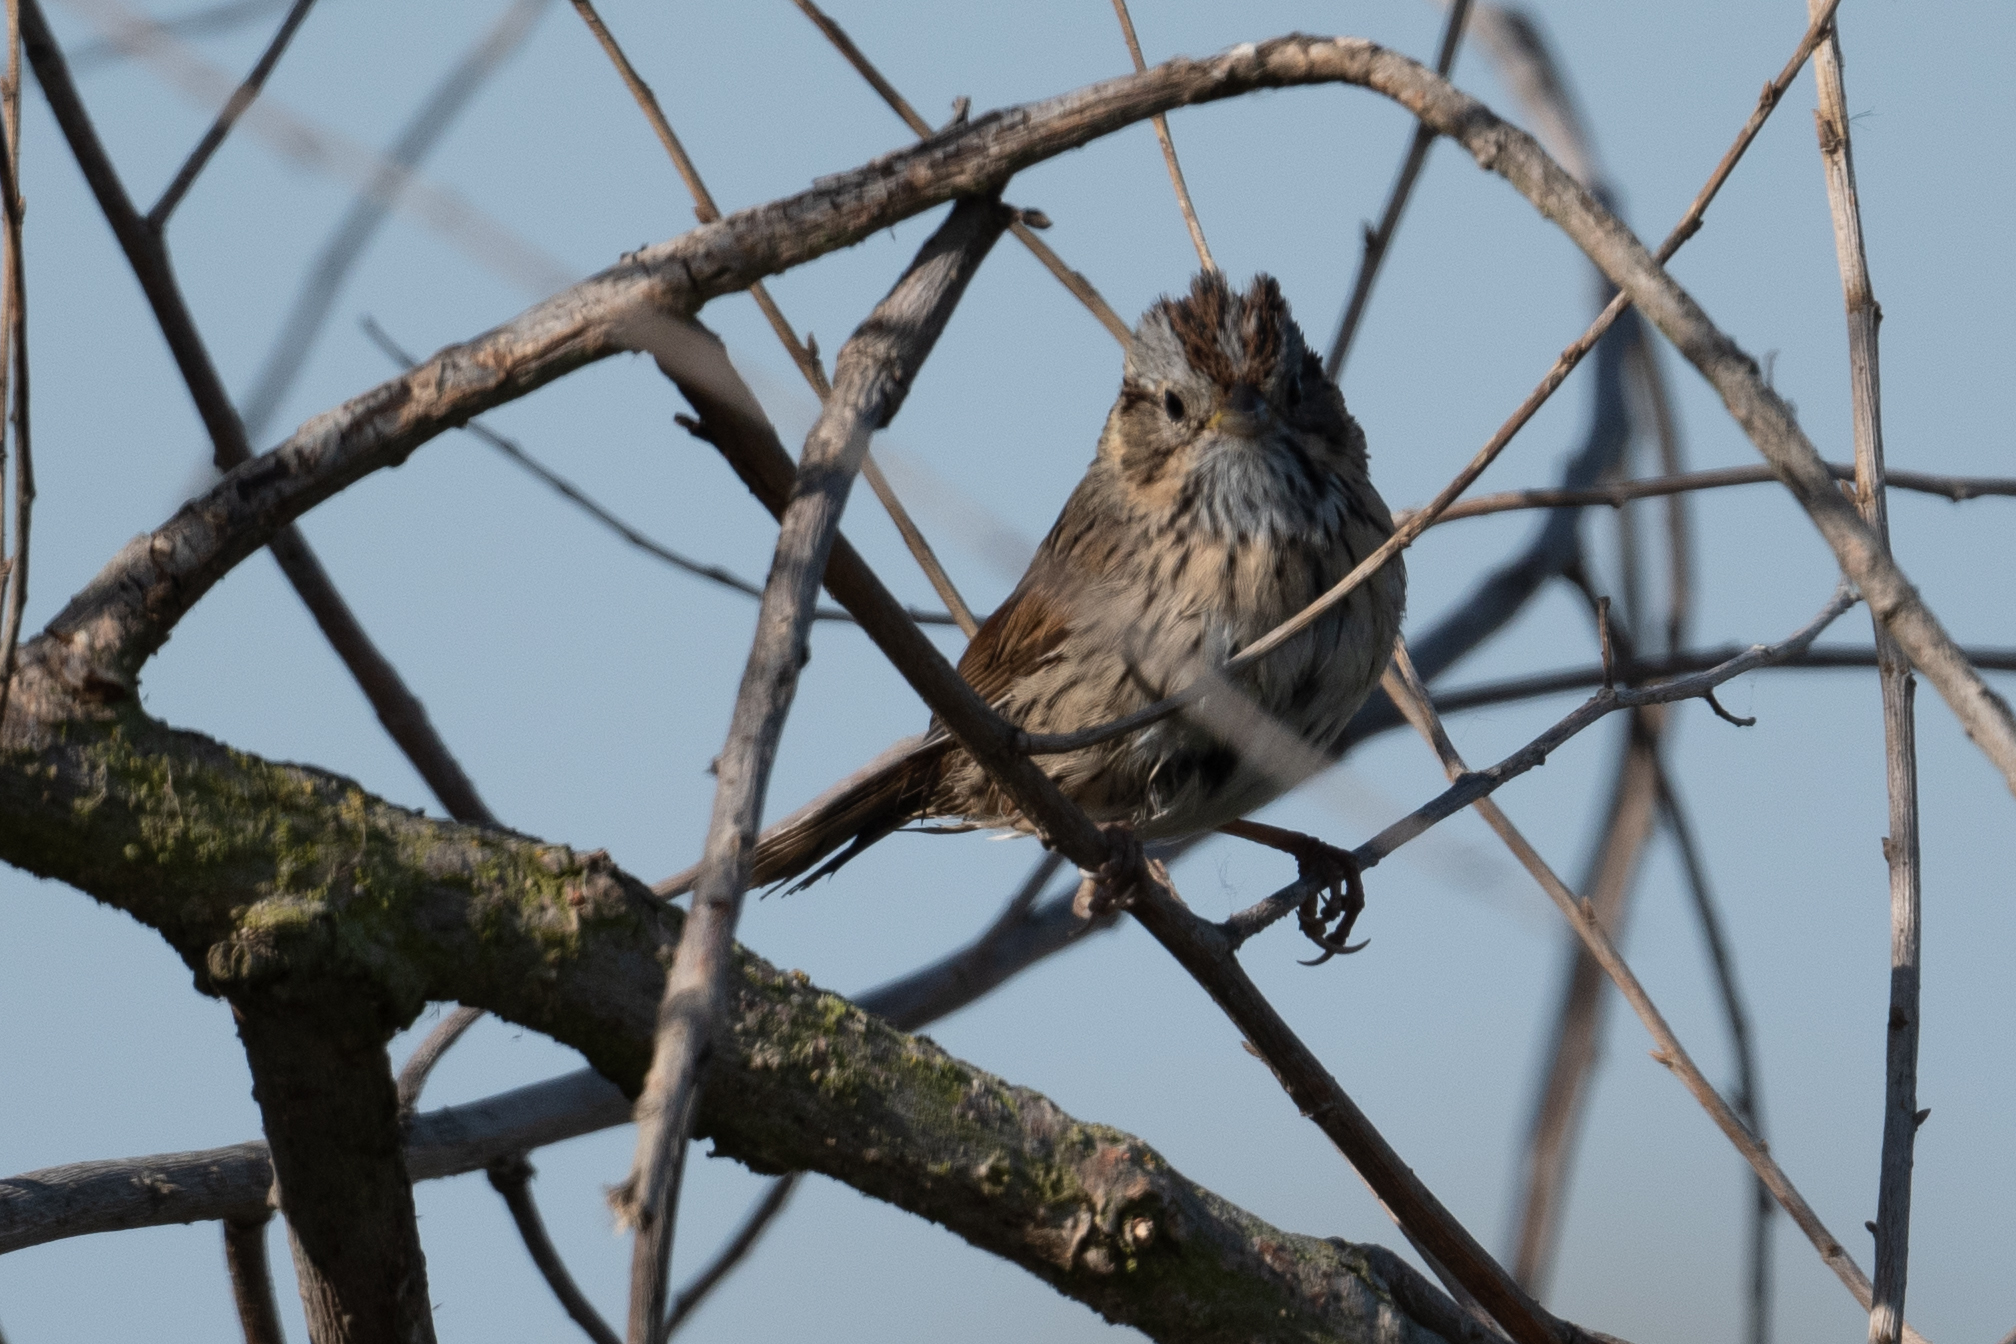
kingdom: Animalia
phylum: Chordata
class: Aves
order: Passeriformes
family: Passerellidae
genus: Melospiza
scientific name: Melospiza lincolnii
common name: Lincoln's sparrow
